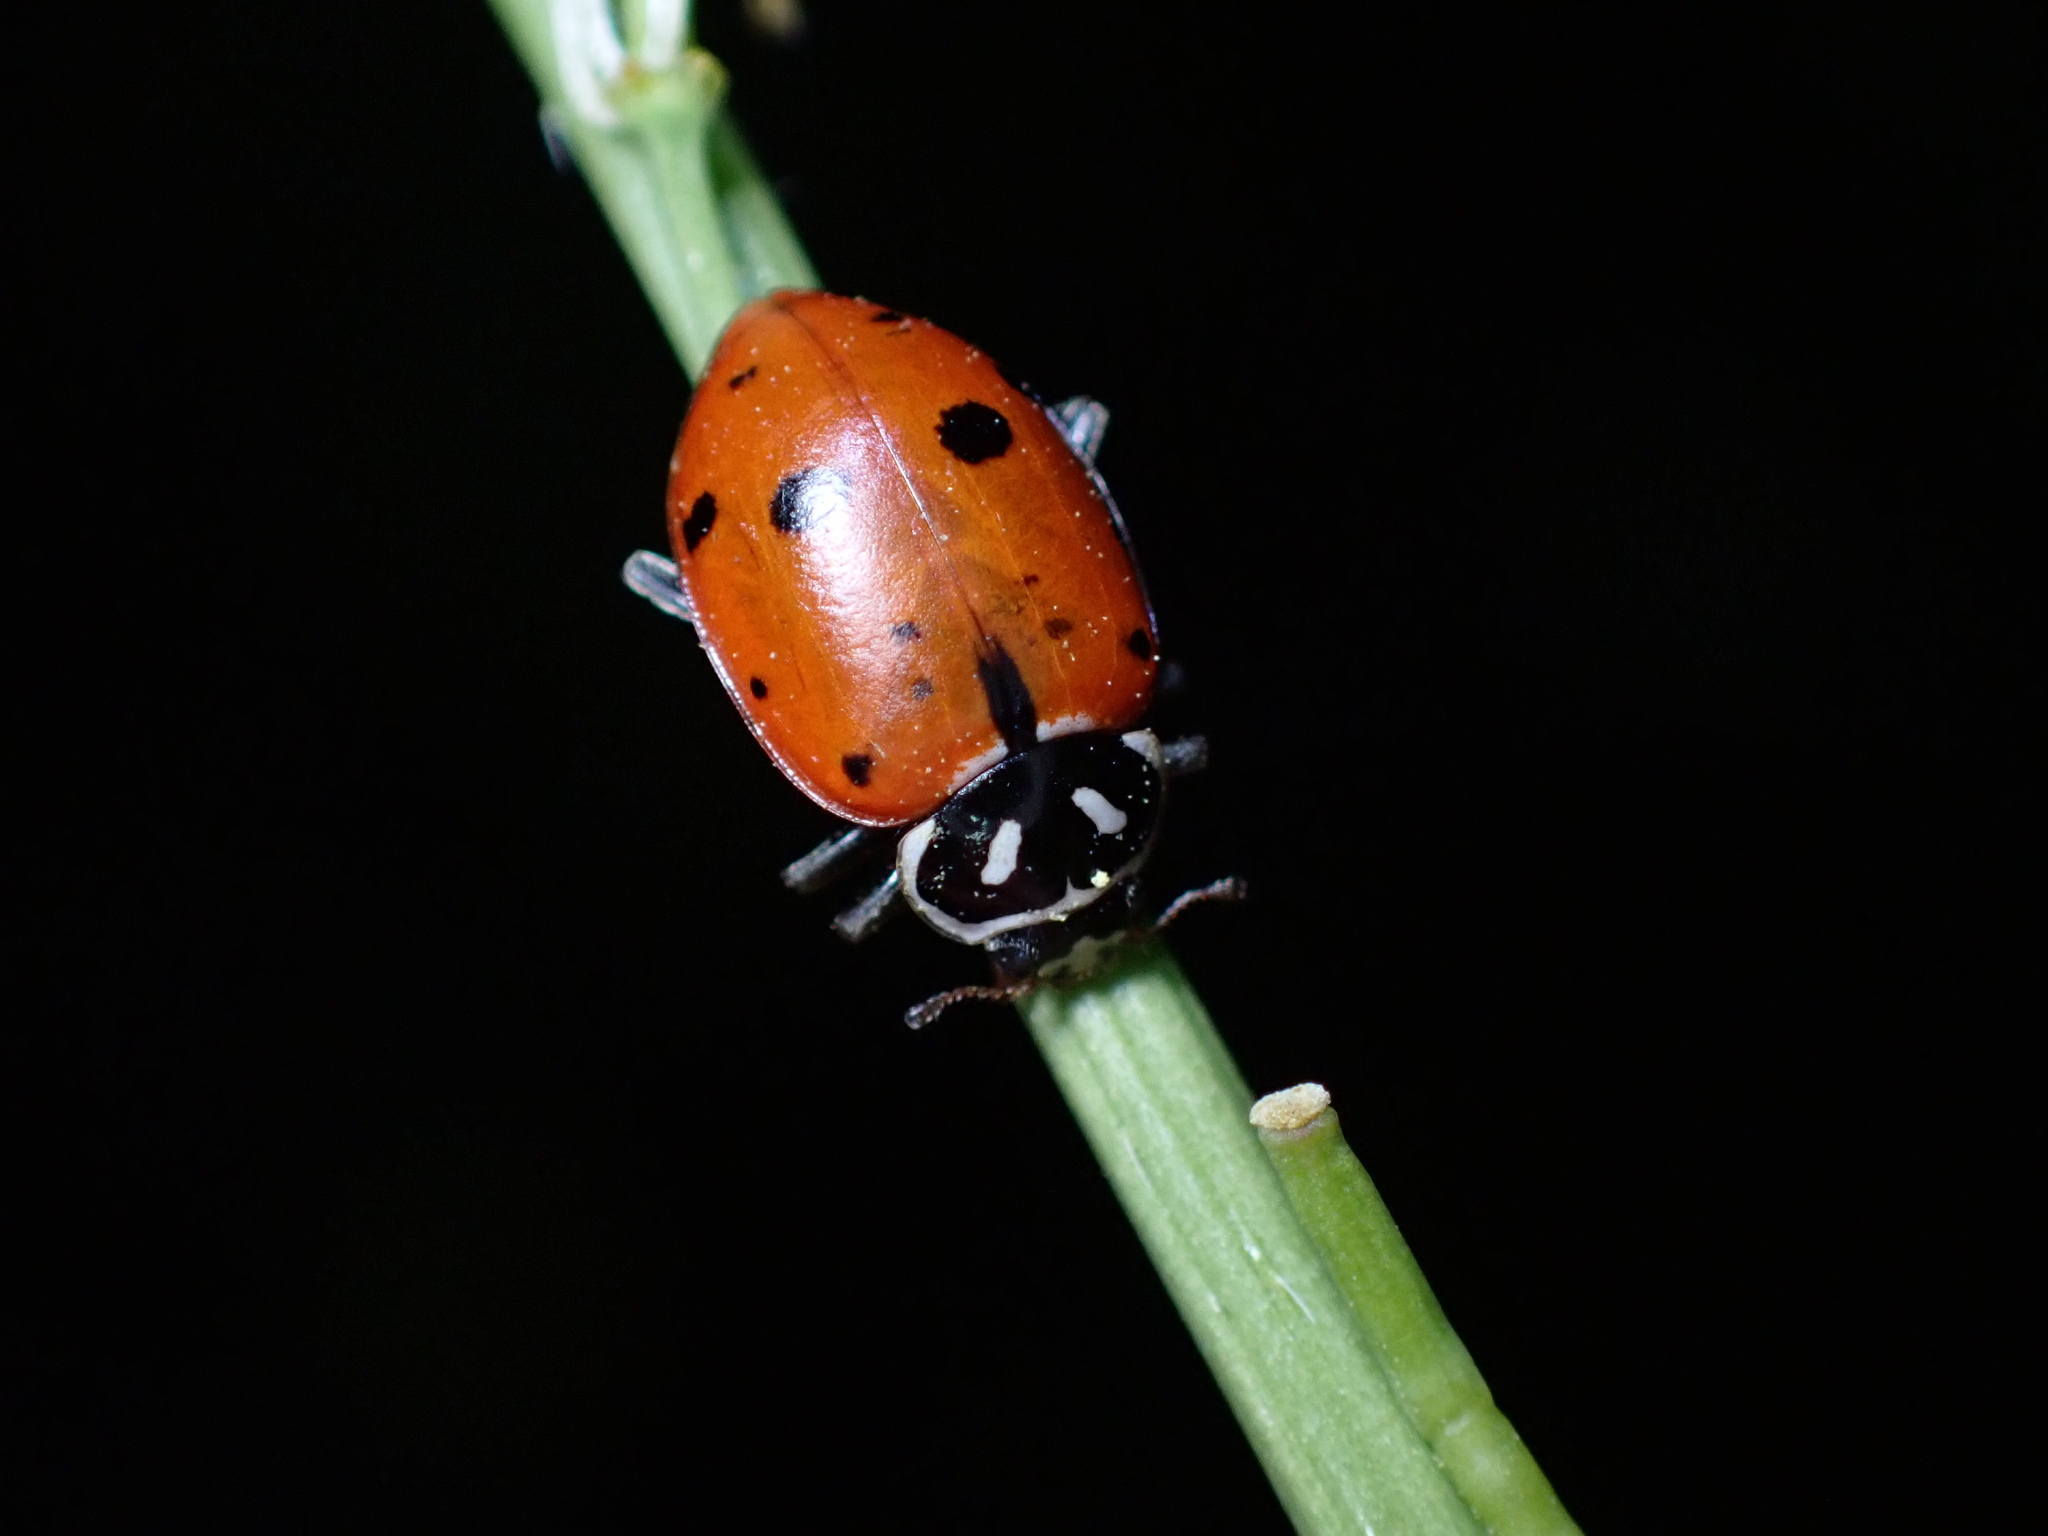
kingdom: Animalia
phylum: Arthropoda
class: Insecta
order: Coleoptera
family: Coccinellidae
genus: Hippodamia
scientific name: Hippodamia convergens
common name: Convergent lady beetle
